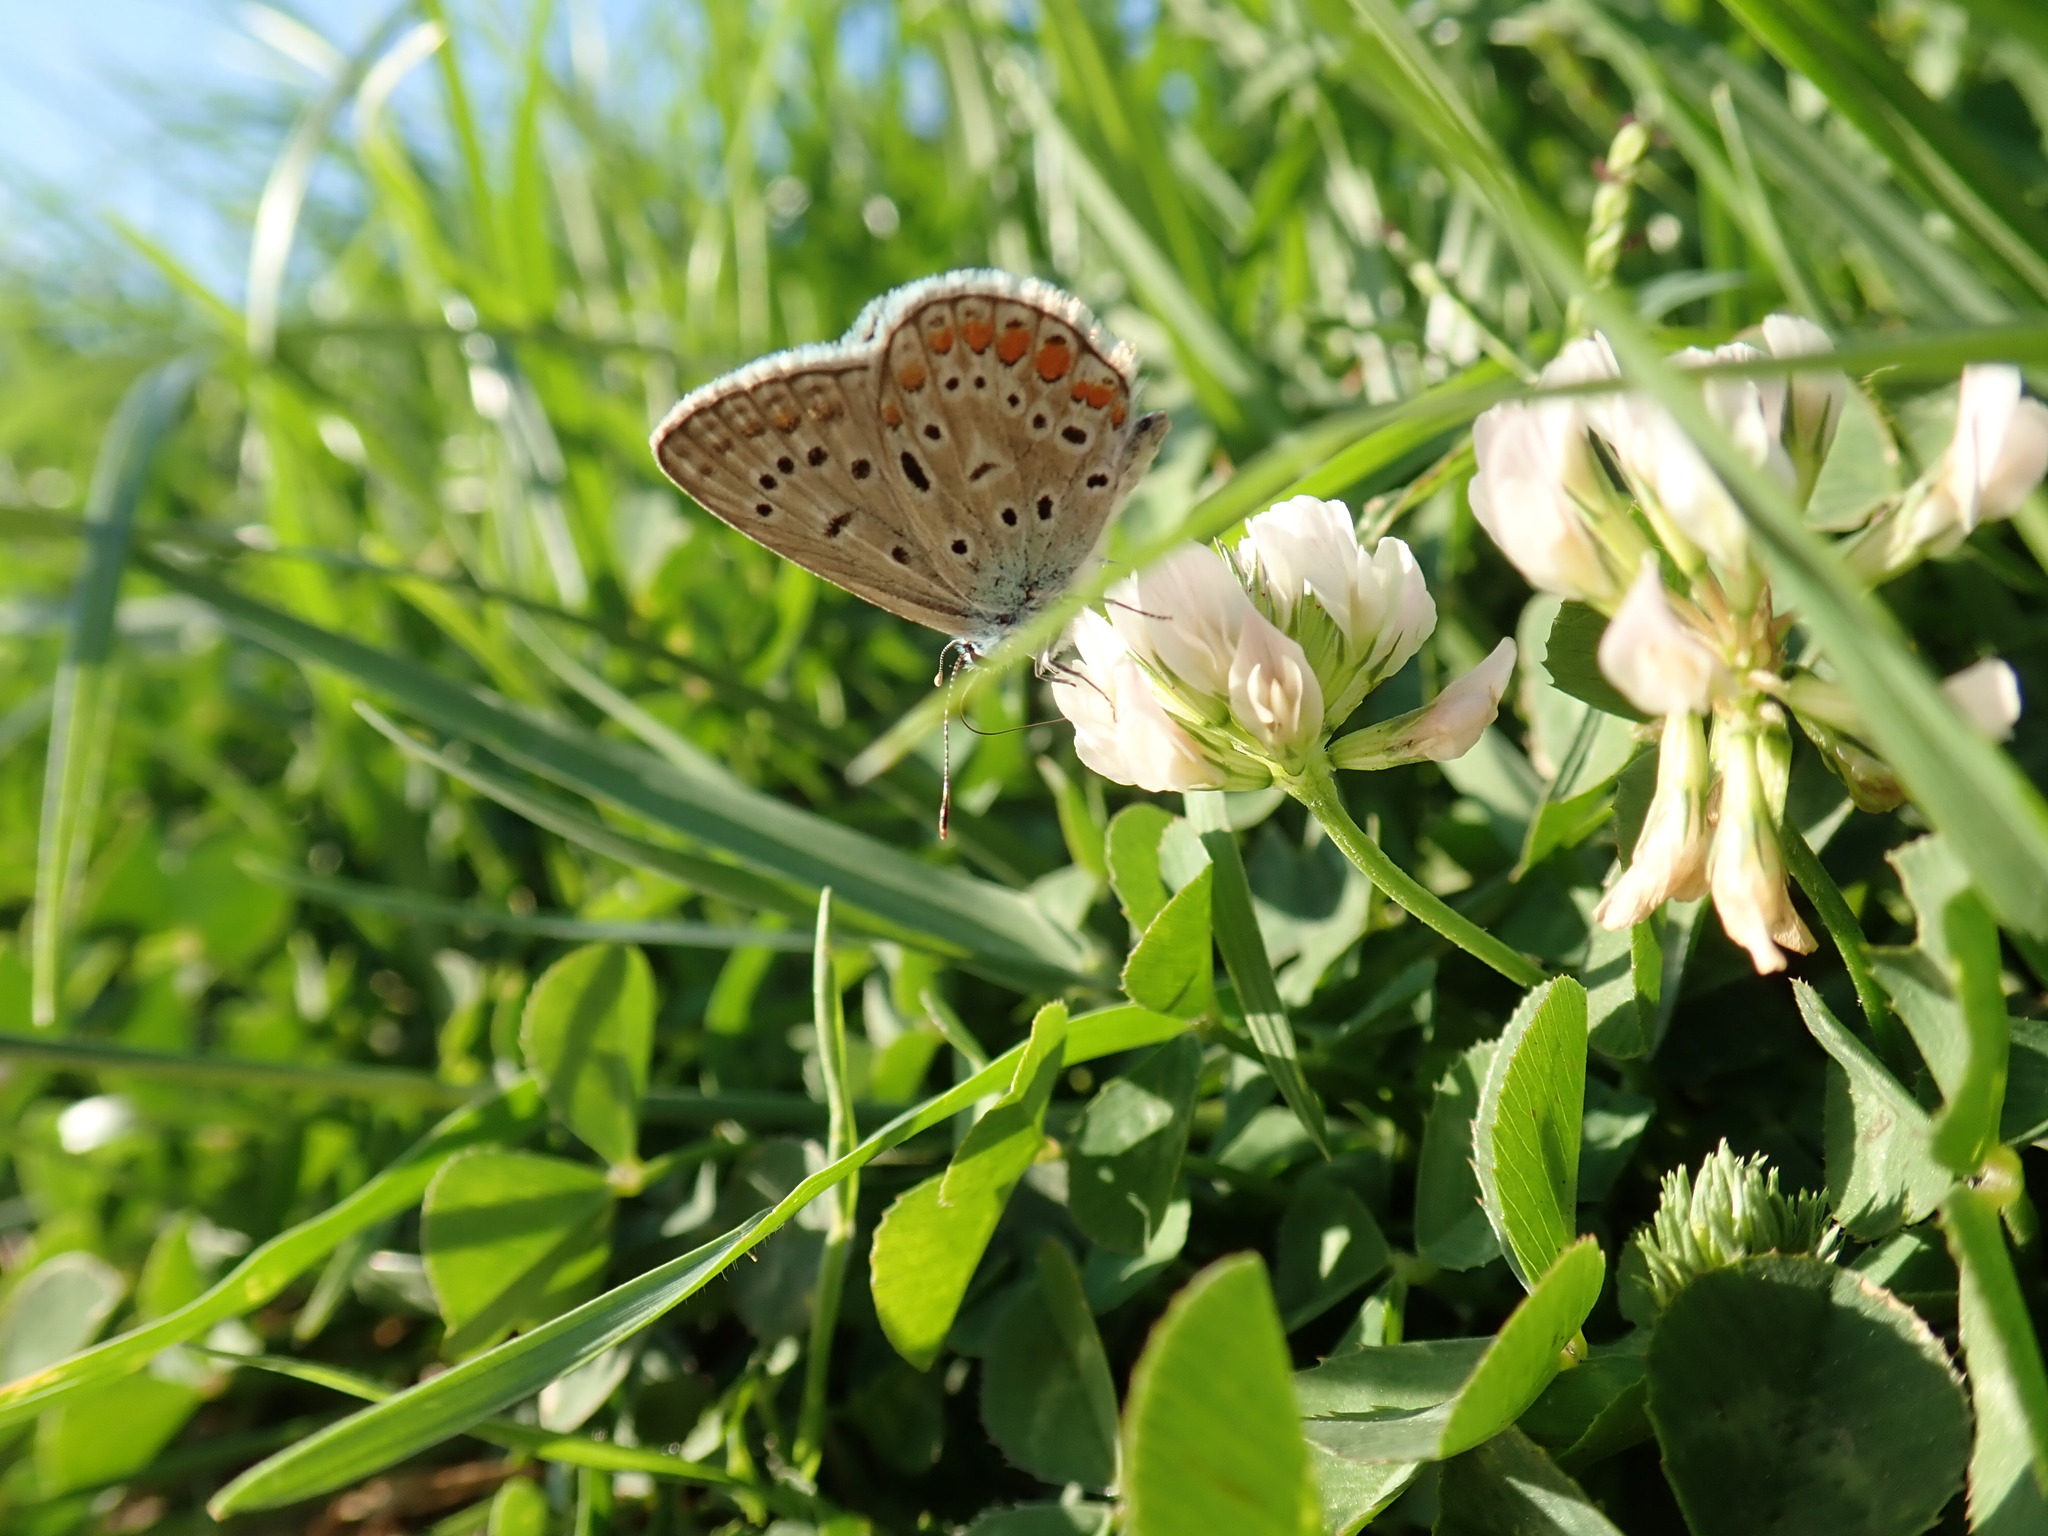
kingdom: Animalia
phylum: Arthropoda
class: Insecta
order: Lepidoptera
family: Lycaenidae
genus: Polyommatus
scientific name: Polyommatus icarus
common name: Common blue
